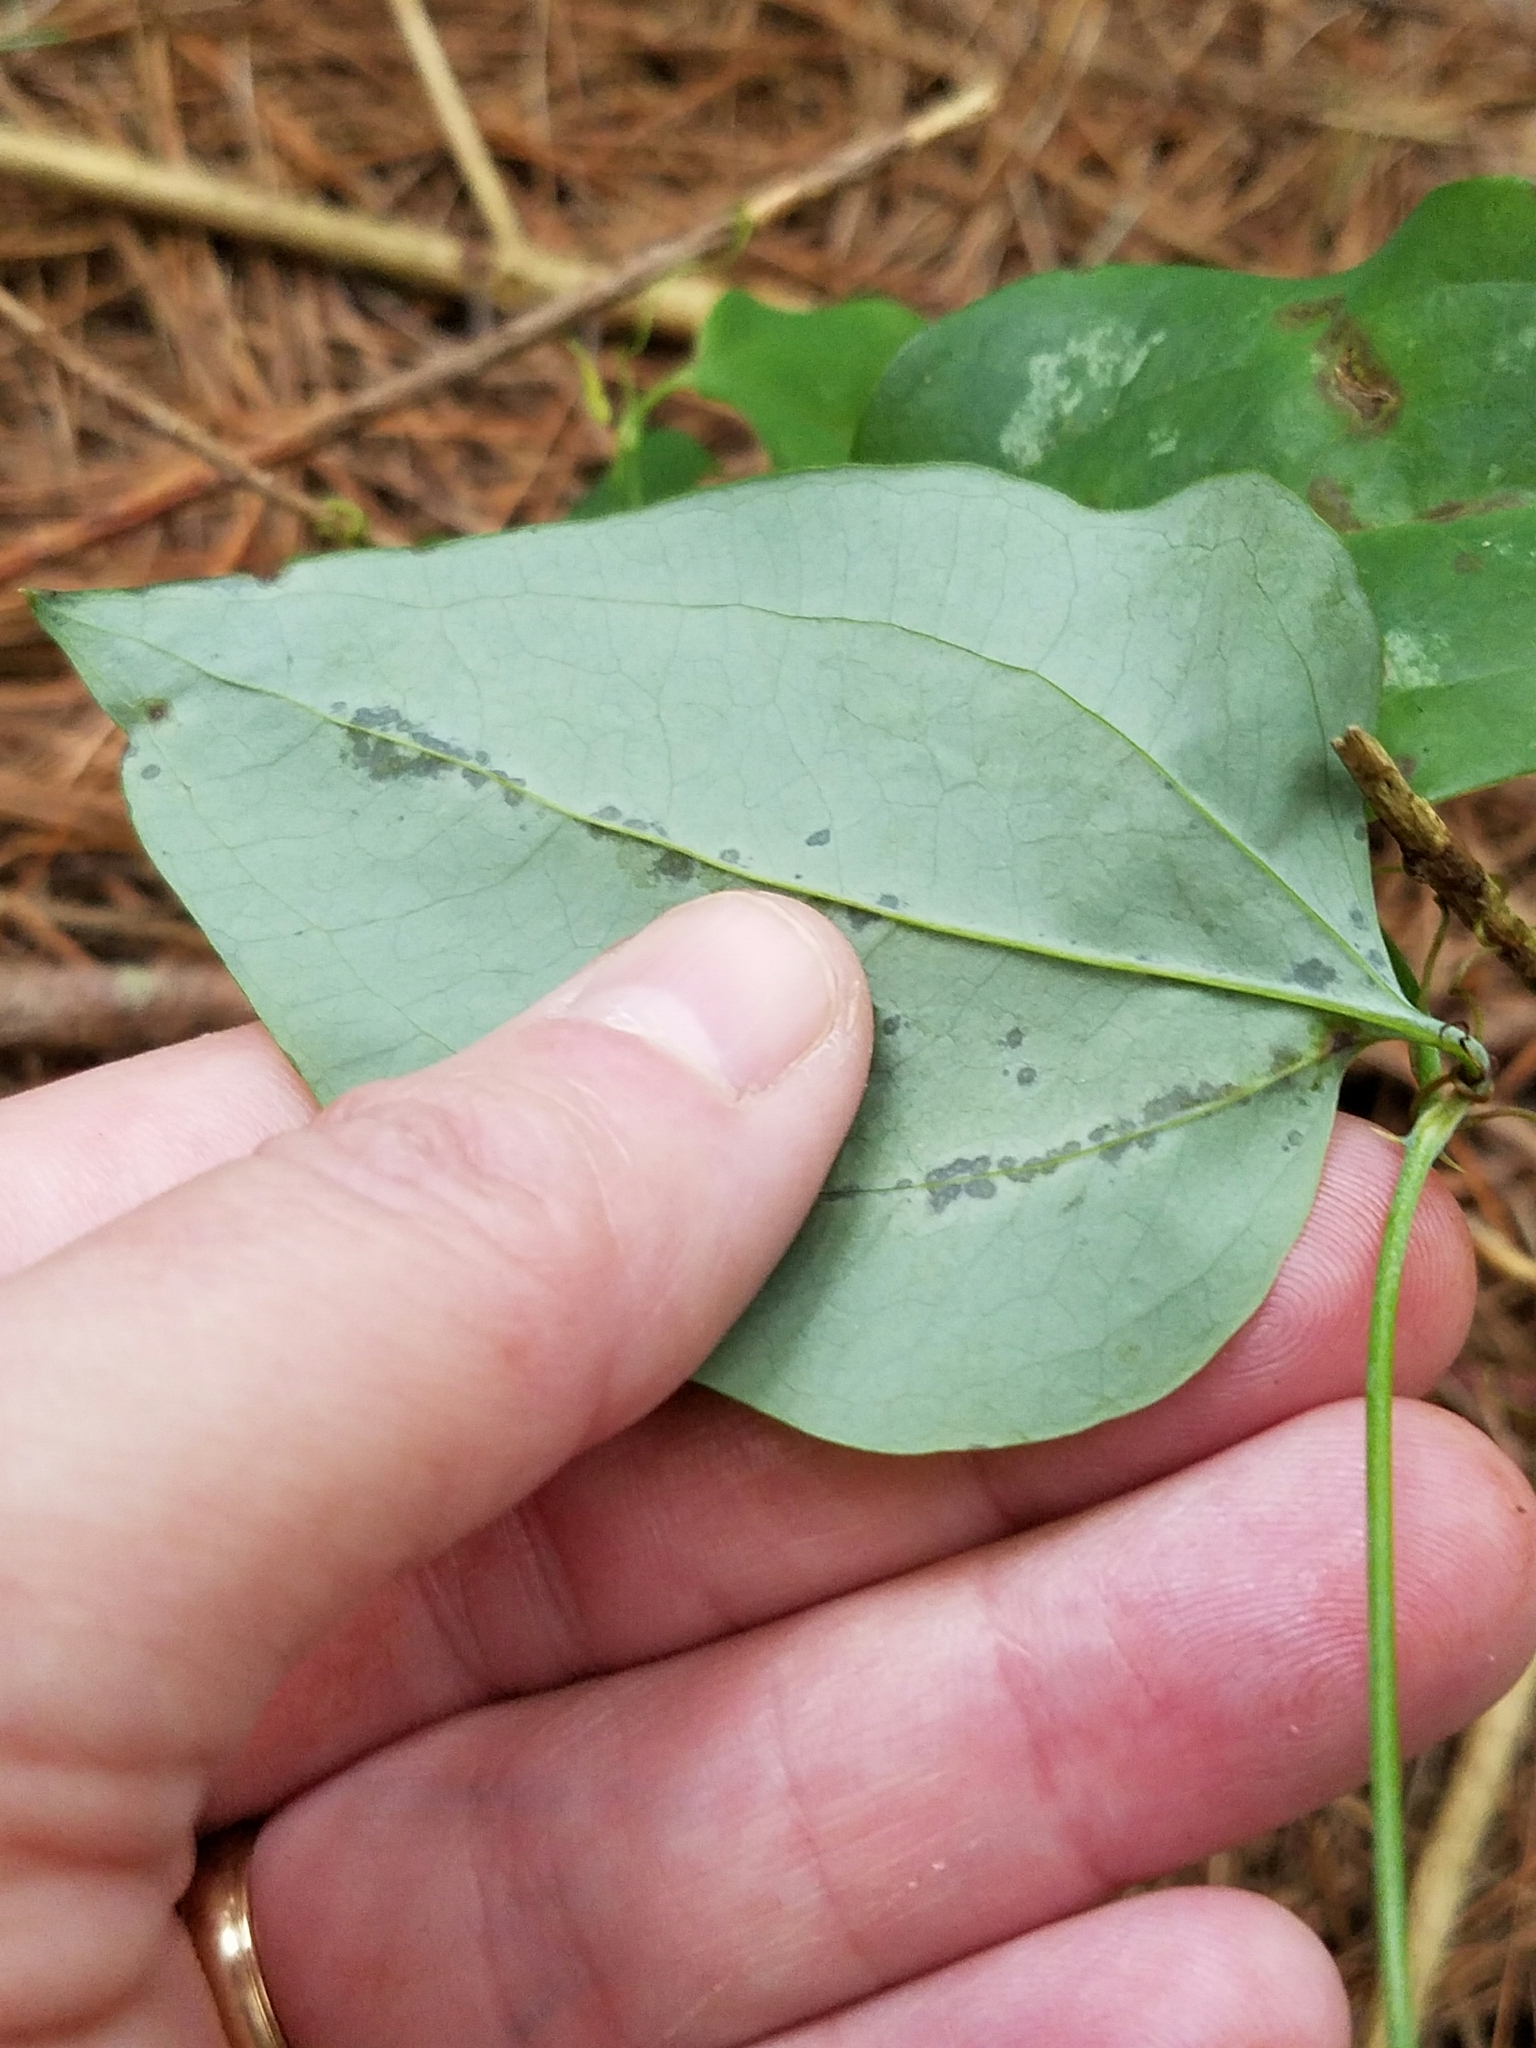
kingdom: Plantae
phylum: Tracheophyta
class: Liliopsida
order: Liliales
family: Smilacaceae
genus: Smilax
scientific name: Smilax glauca
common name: Cat greenbrier
